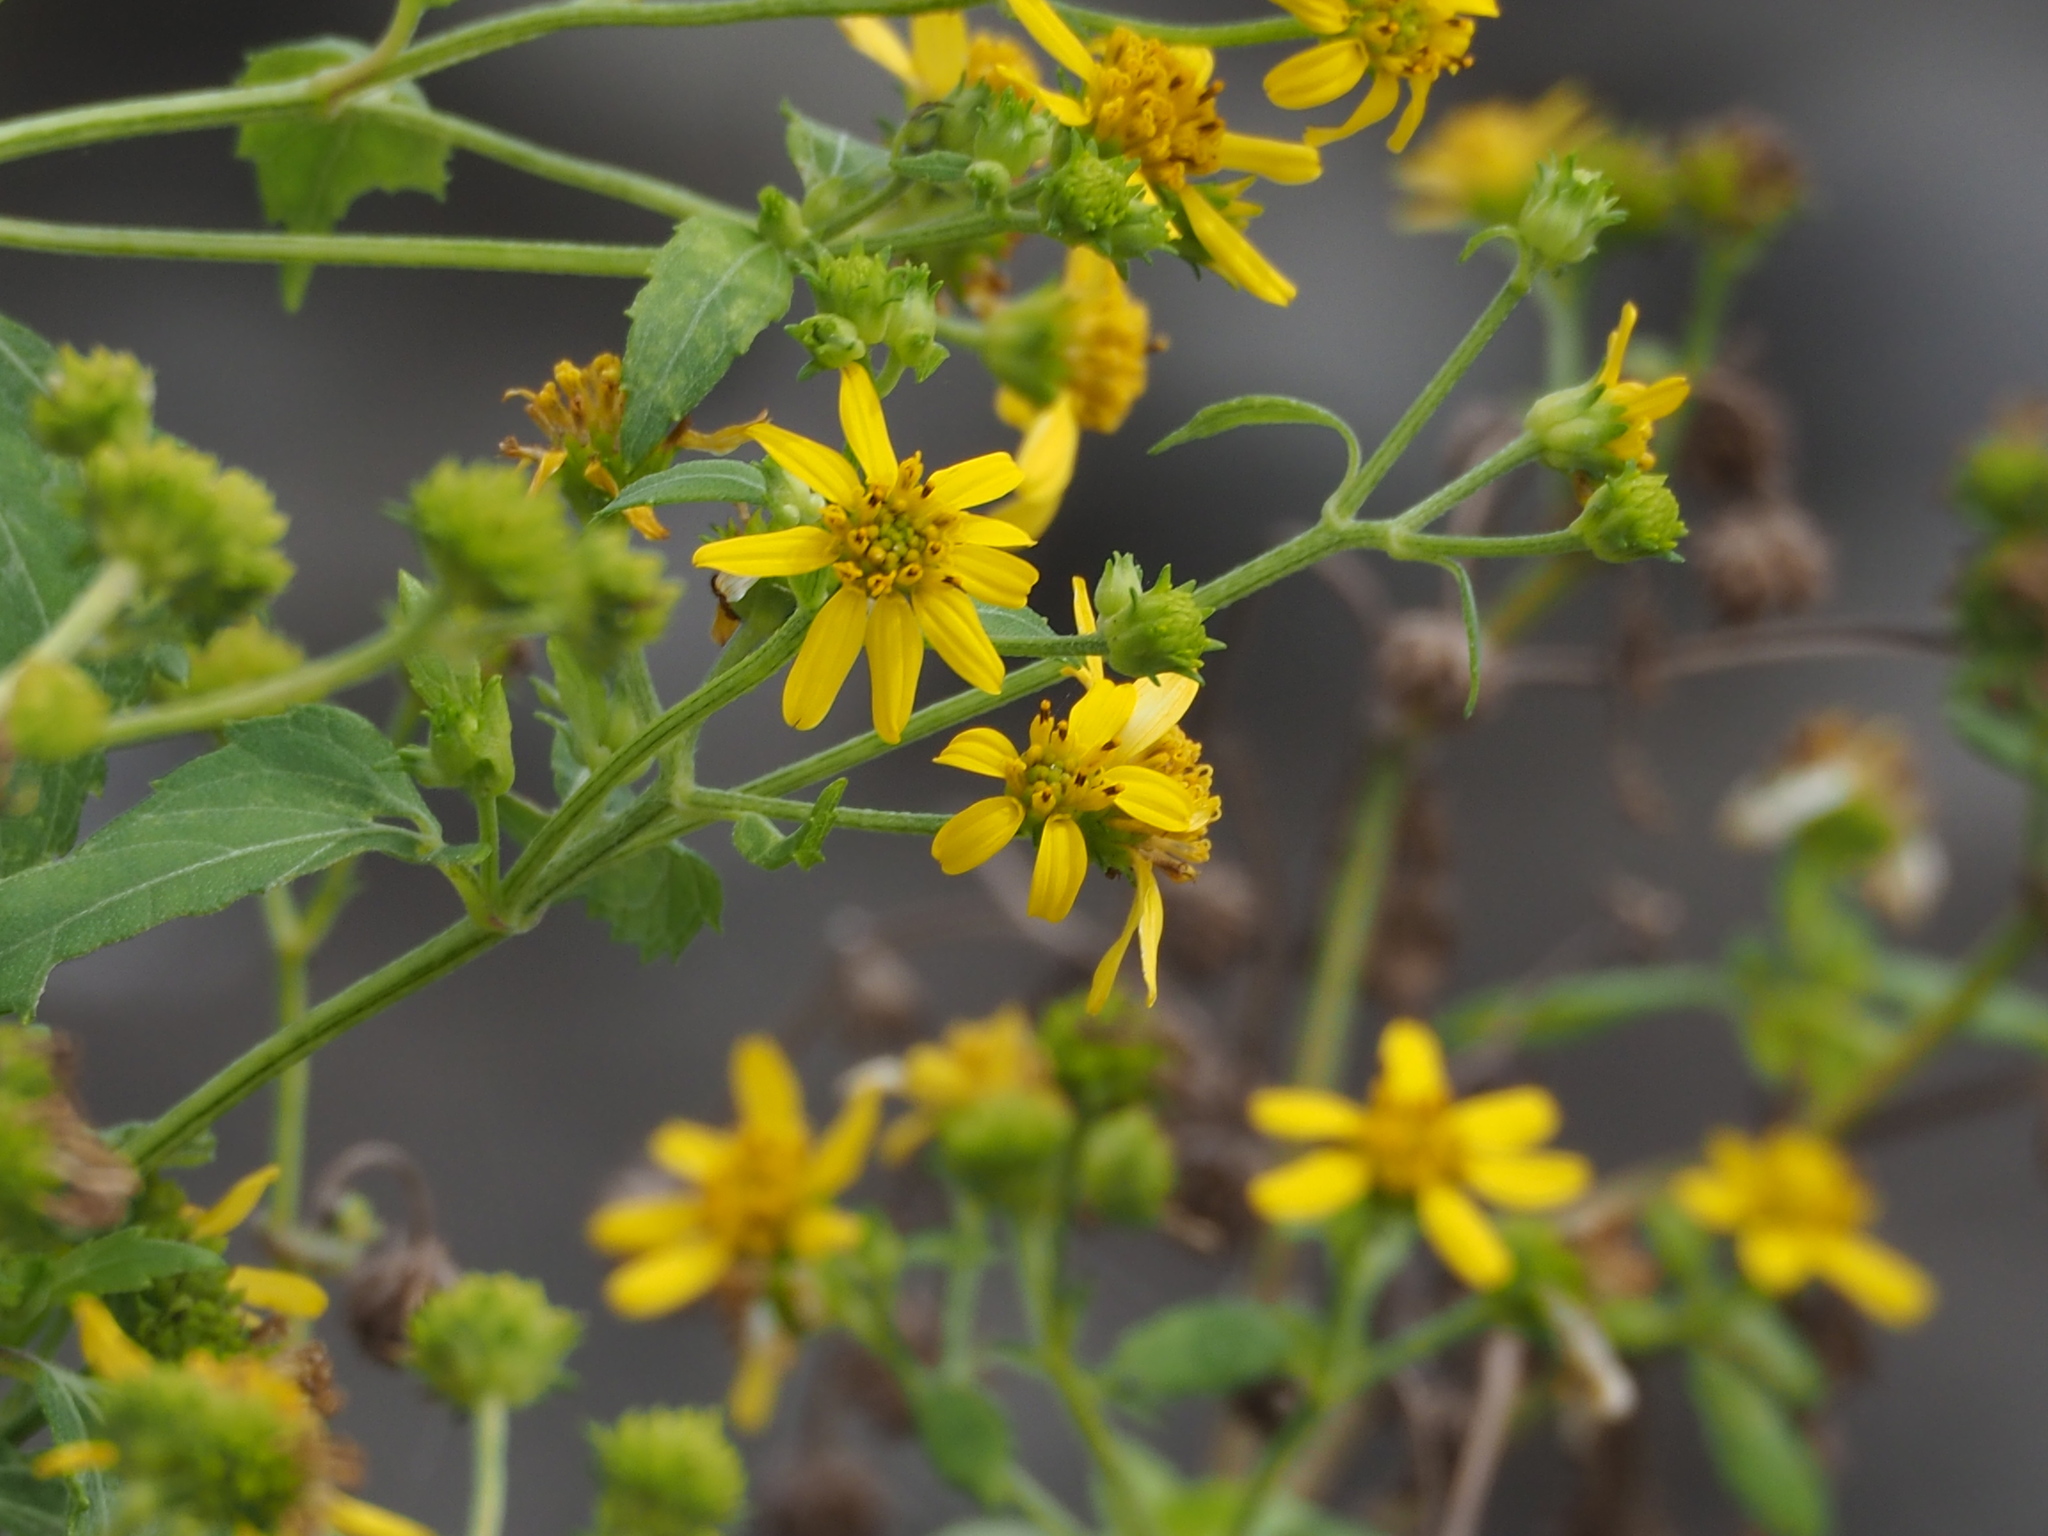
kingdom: Plantae
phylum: Tracheophyta
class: Magnoliopsida
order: Asterales
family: Asteraceae
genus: Wollastonia
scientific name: Wollastonia biflora
